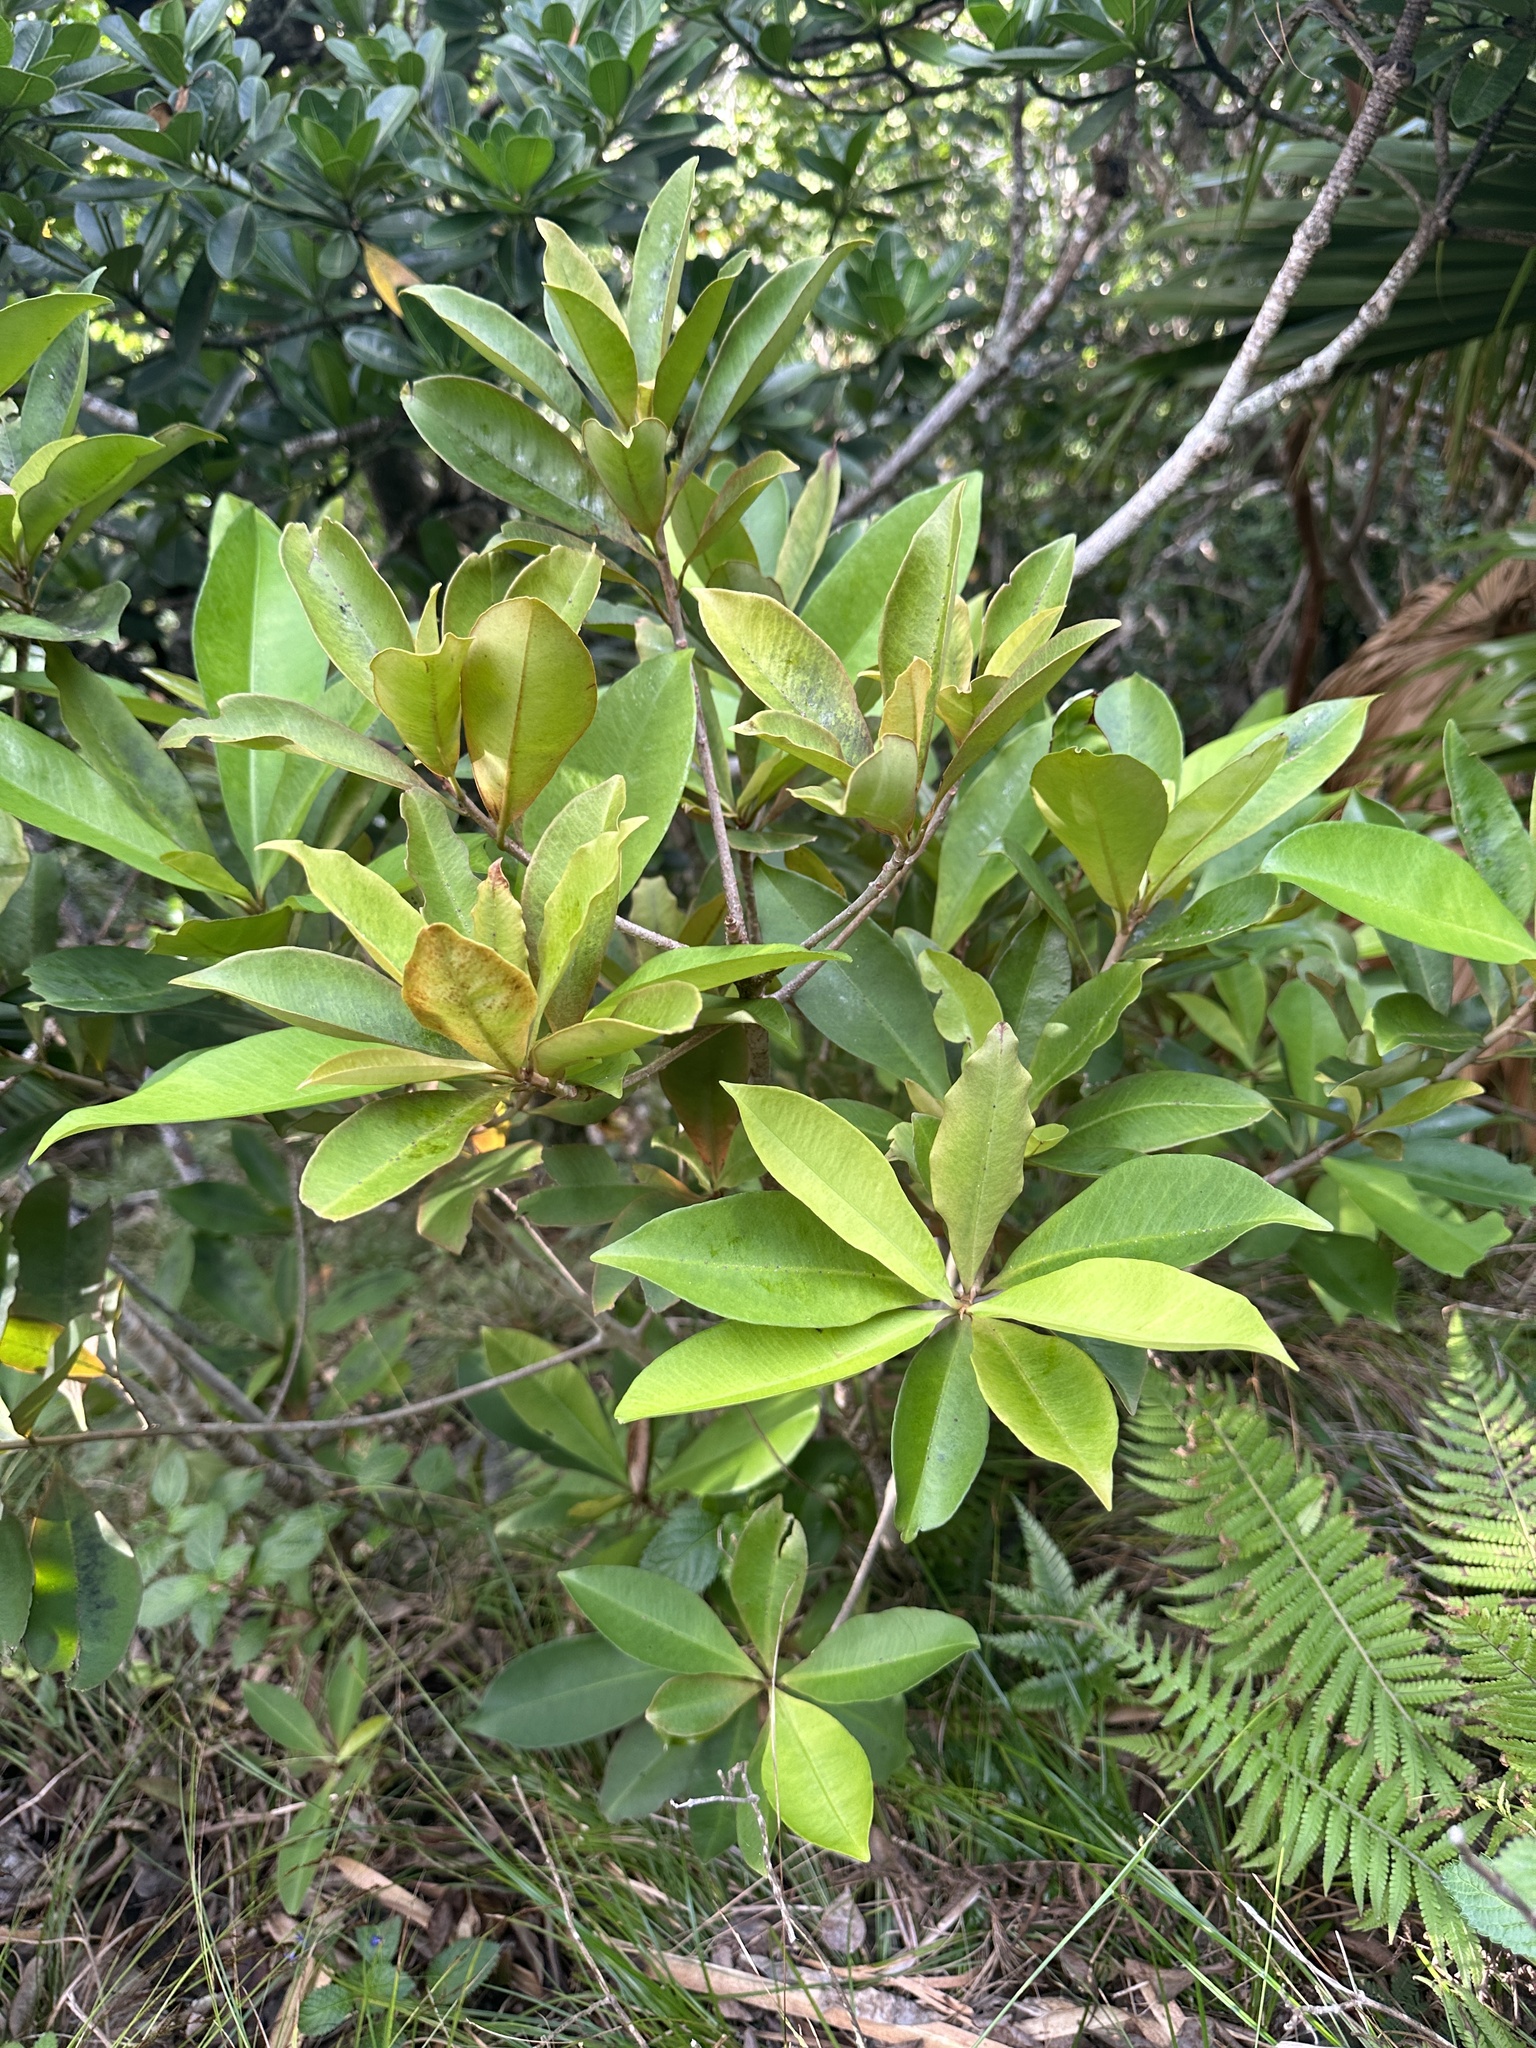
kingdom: Plantae
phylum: Tracheophyta
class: Magnoliopsida
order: Ericales
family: Primulaceae
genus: Ardisia
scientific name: Ardisia sieboldii
